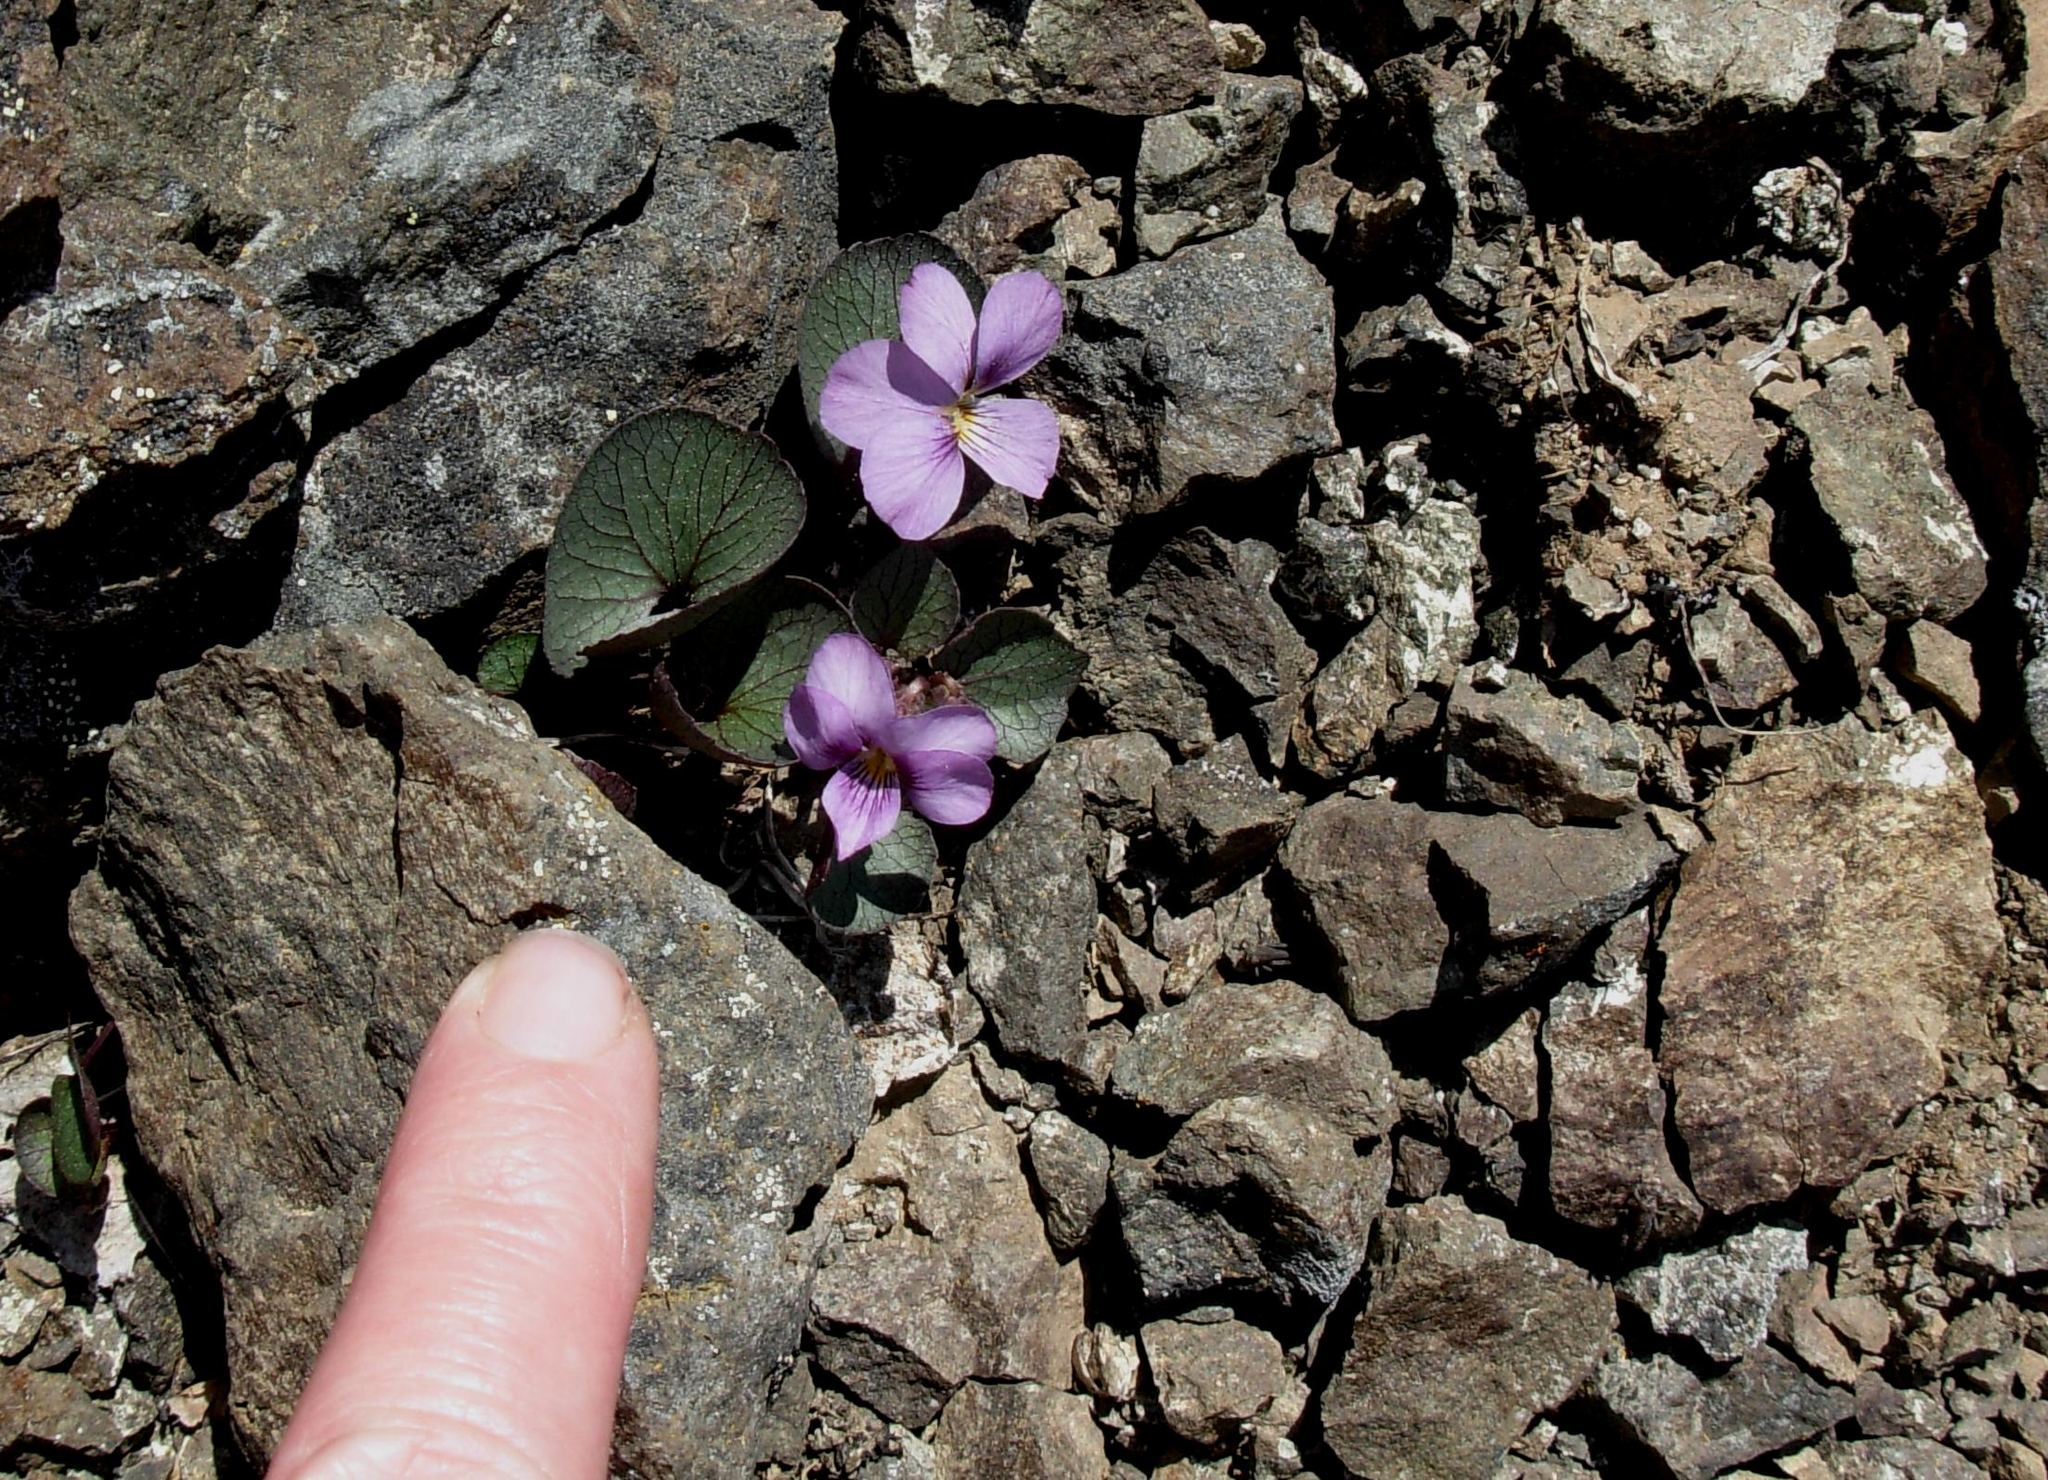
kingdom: Plantae
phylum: Tracheophyta
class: Magnoliopsida
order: Malpighiales
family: Violaceae
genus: Viola
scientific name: Viola flettii
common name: Rock violet
